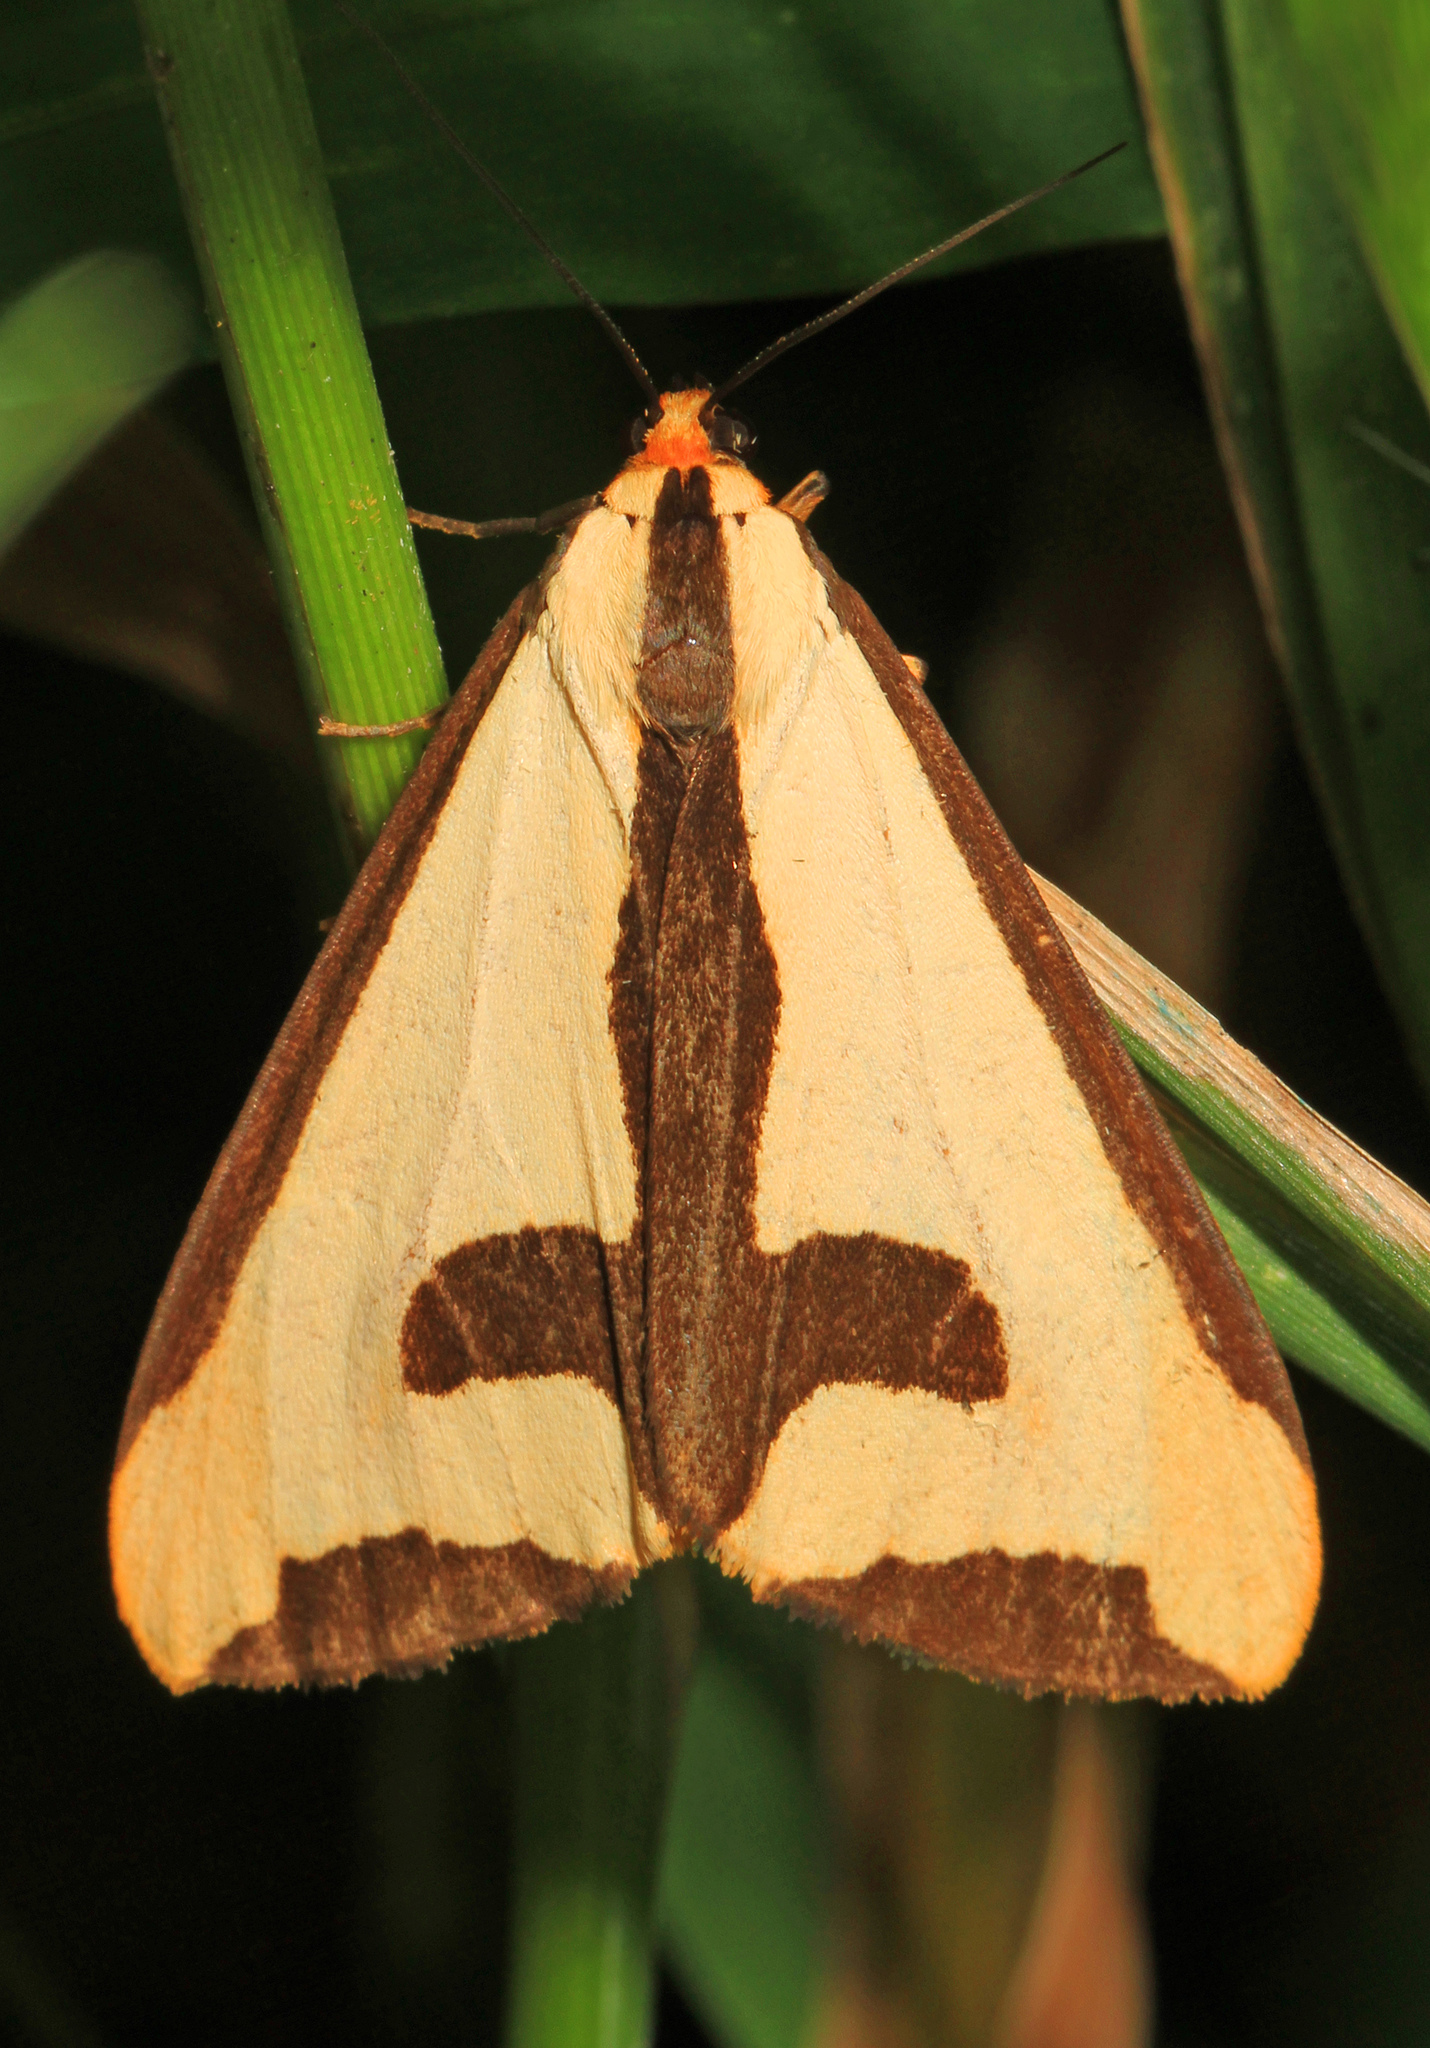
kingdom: Animalia
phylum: Arthropoda
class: Insecta
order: Lepidoptera
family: Erebidae
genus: Haploa
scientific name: Haploa clymene
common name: Clymene moth
